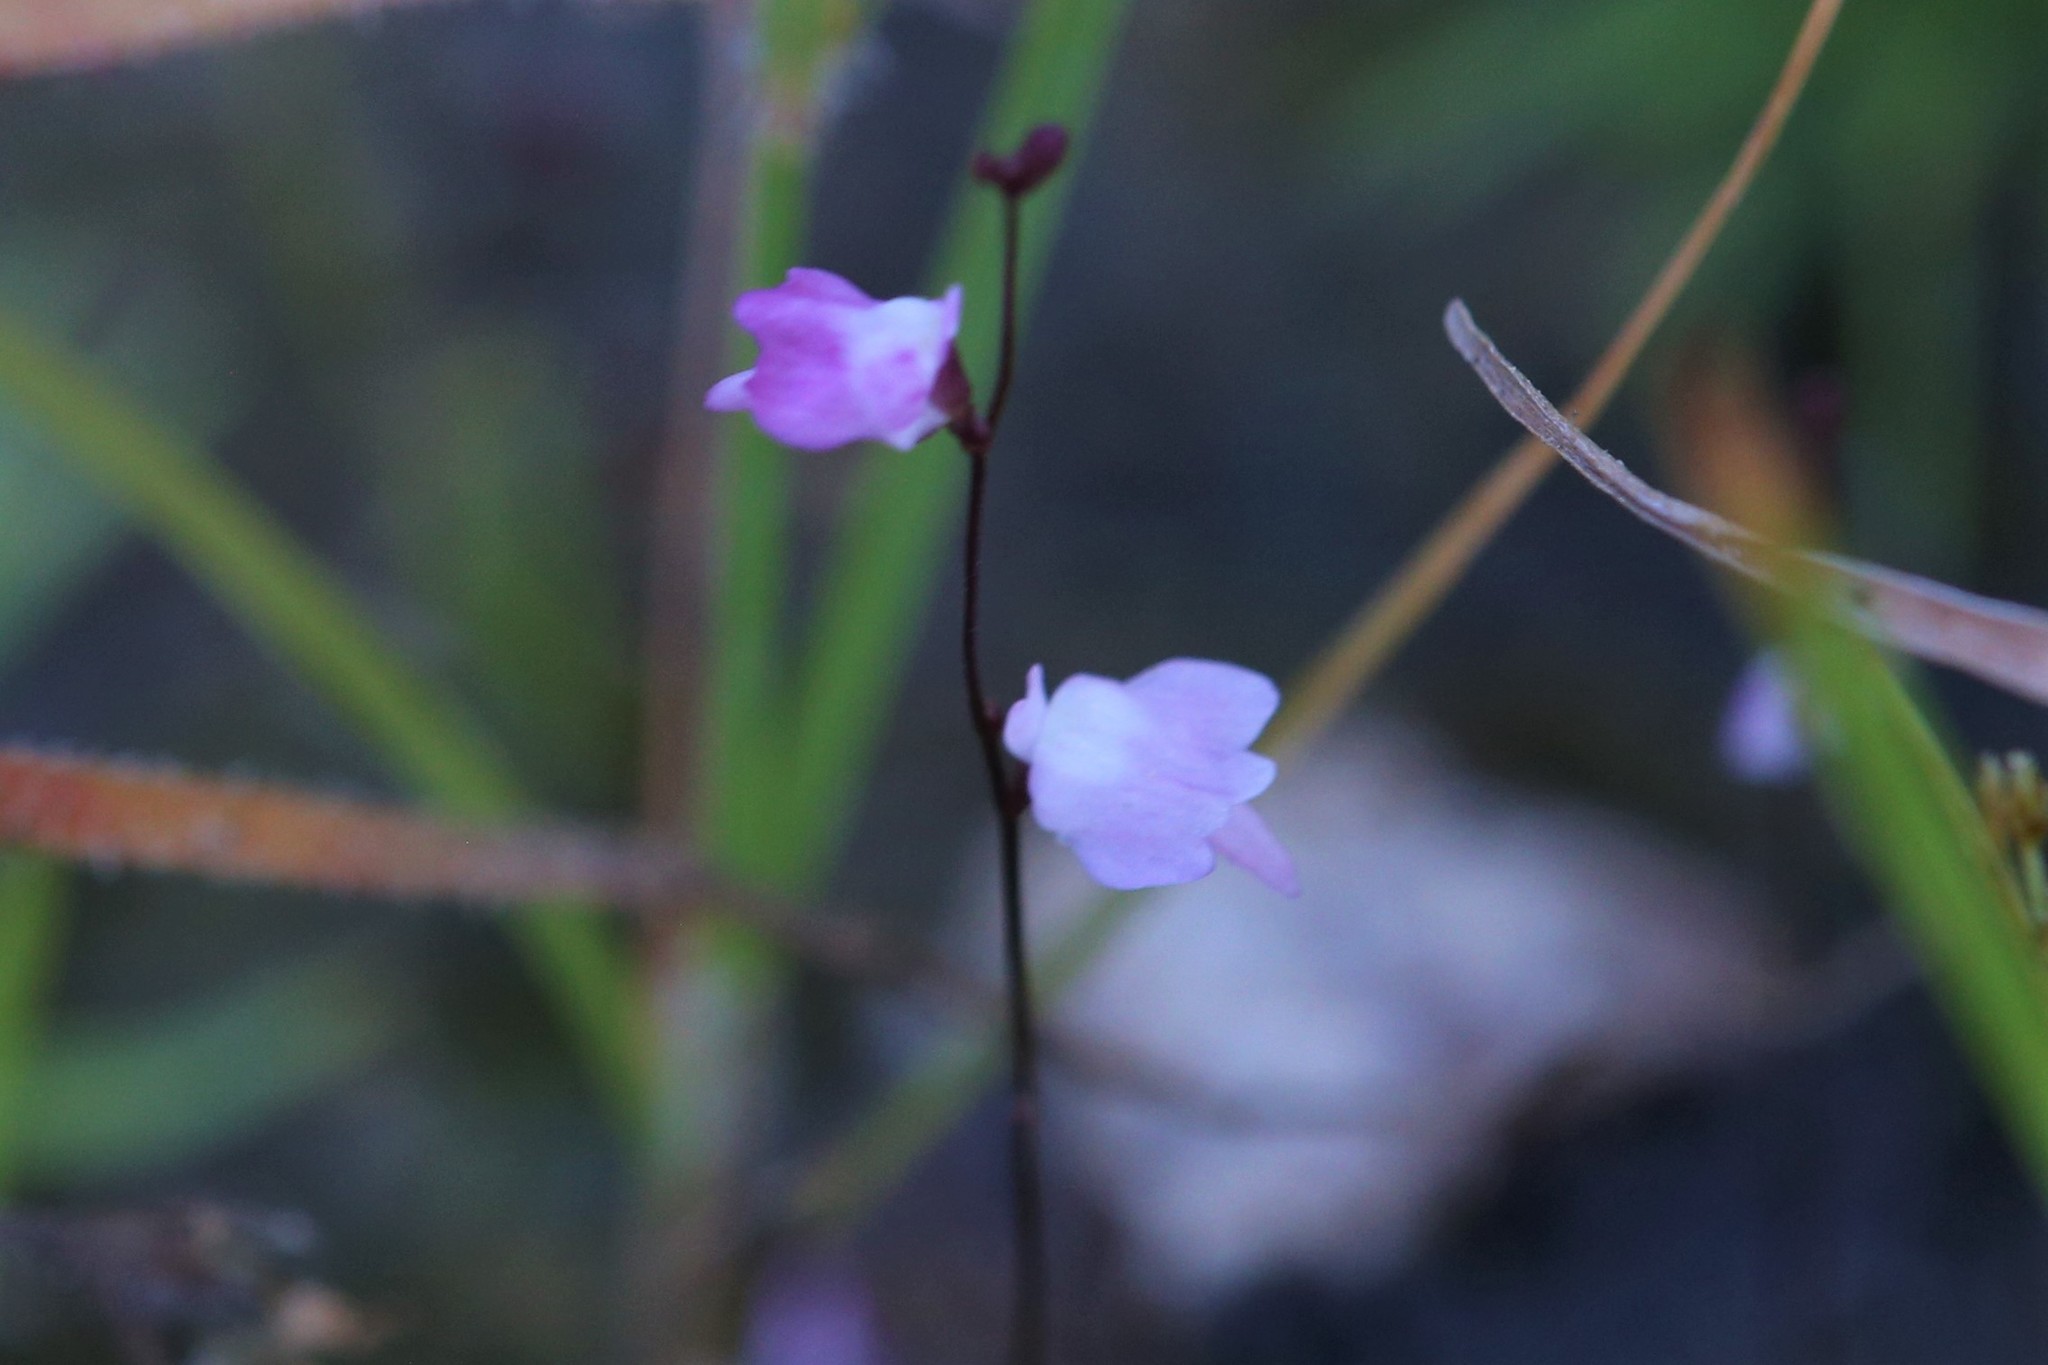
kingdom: Plantae
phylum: Tracheophyta
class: Magnoliopsida
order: Lamiales
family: Lentibulariaceae
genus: Utricularia
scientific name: Utricularia minutissima
